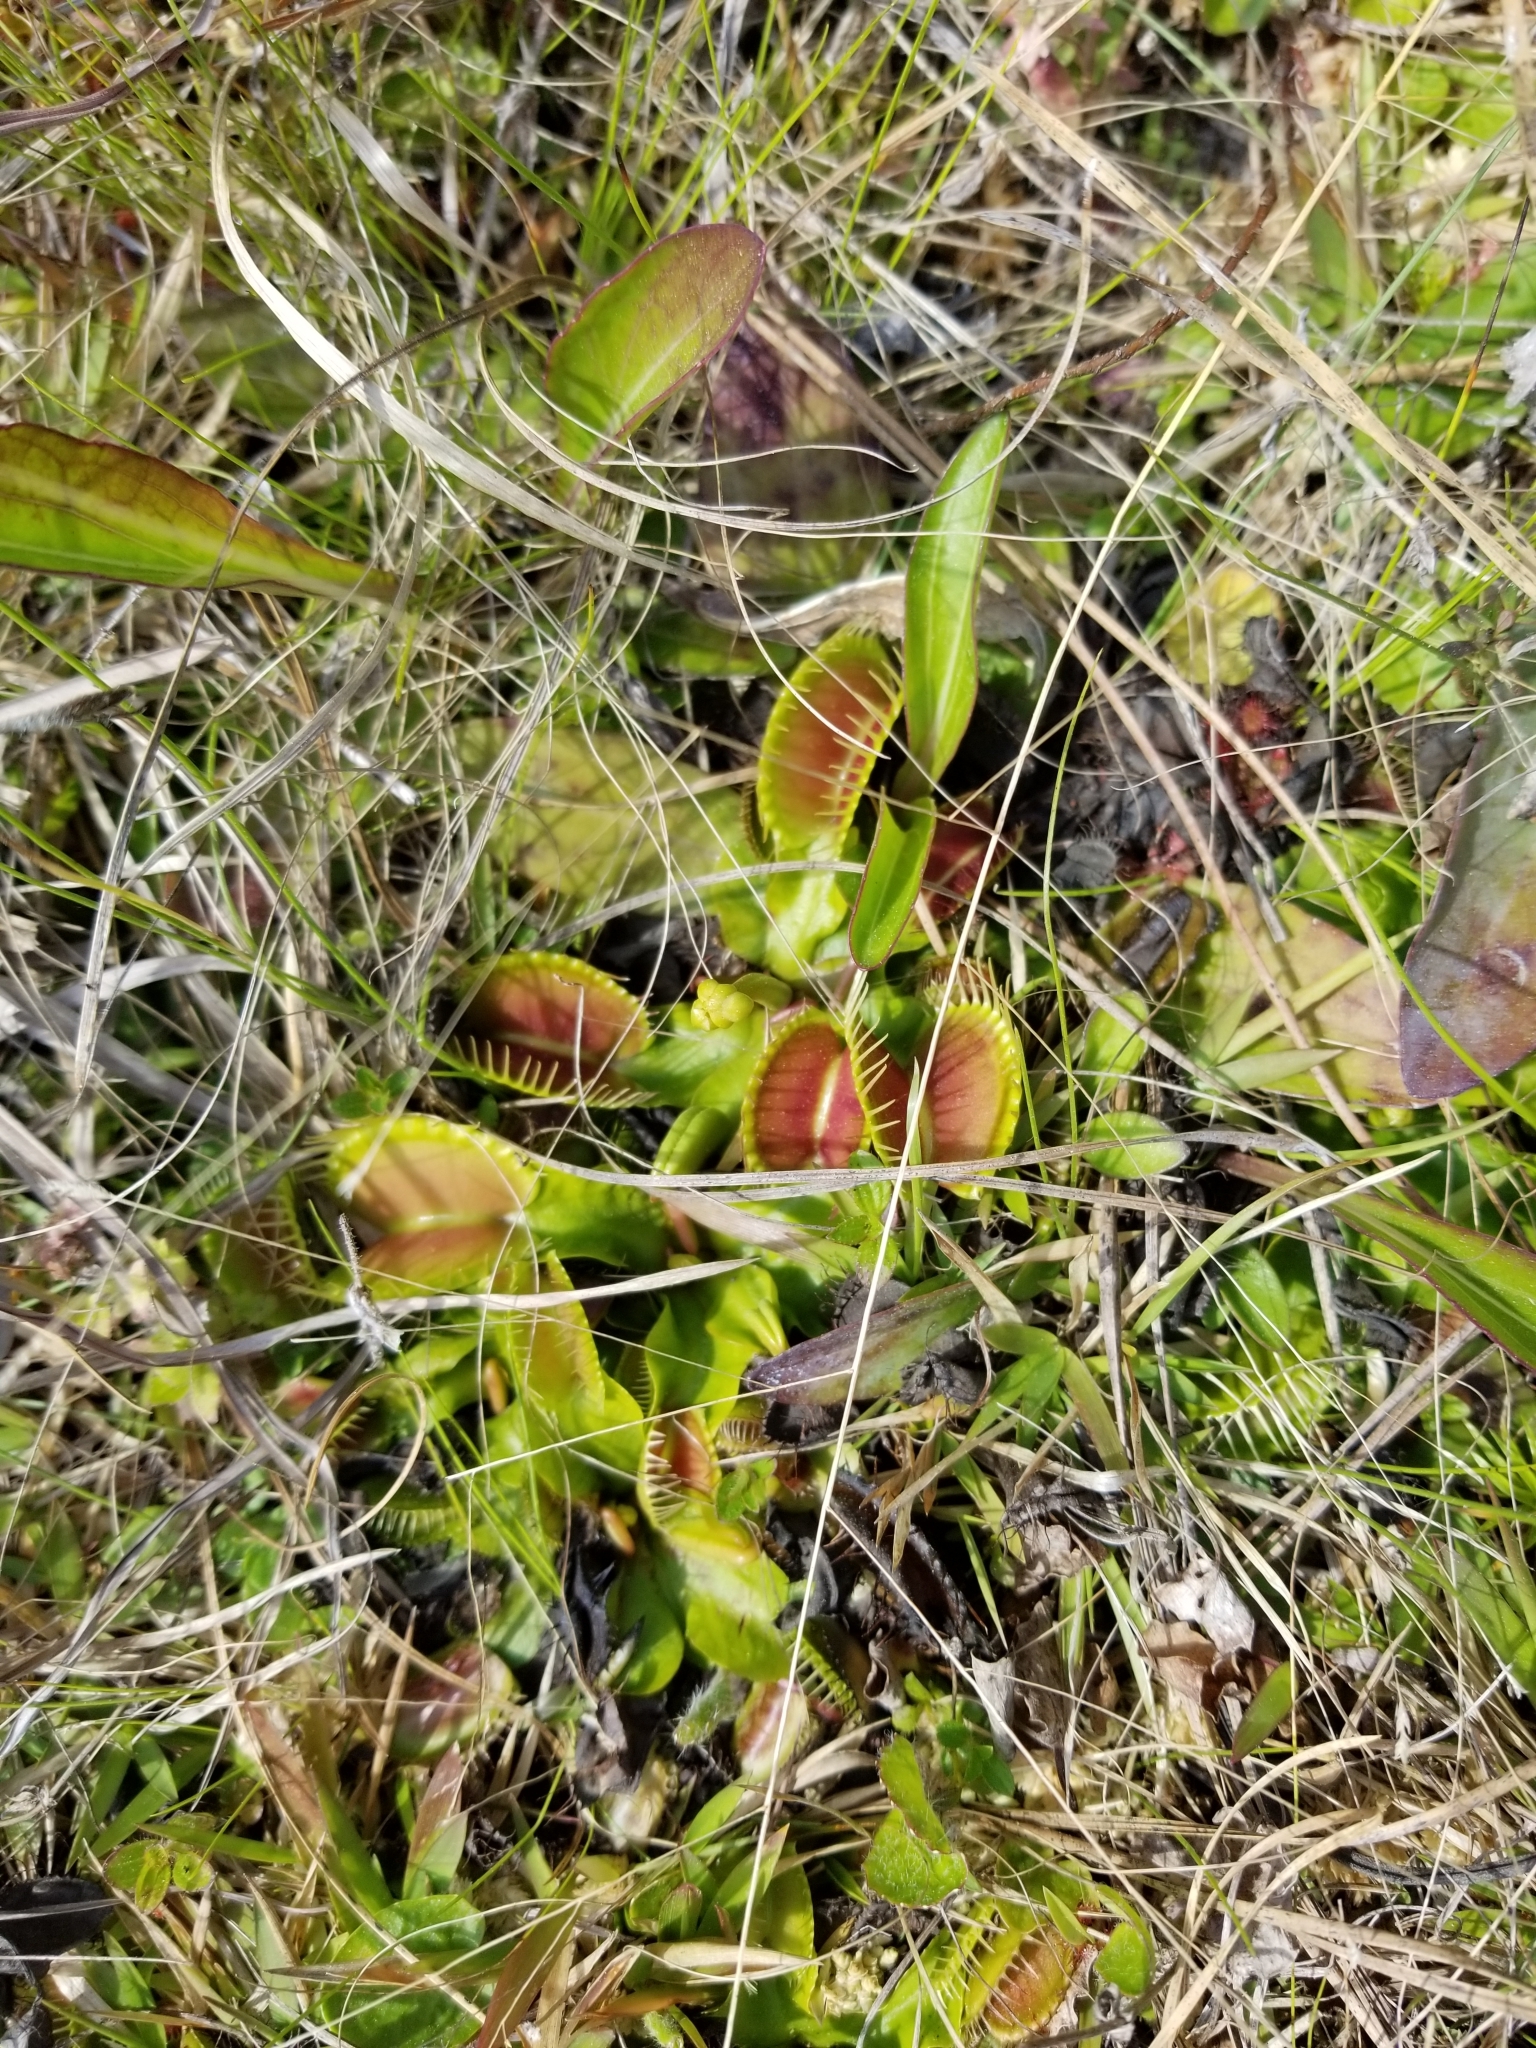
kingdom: Plantae
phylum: Tracheophyta
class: Magnoliopsida
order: Caryophyllales
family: Droseraceae
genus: Dionaea
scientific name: Dionaea muscipula
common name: Venus flytrap
